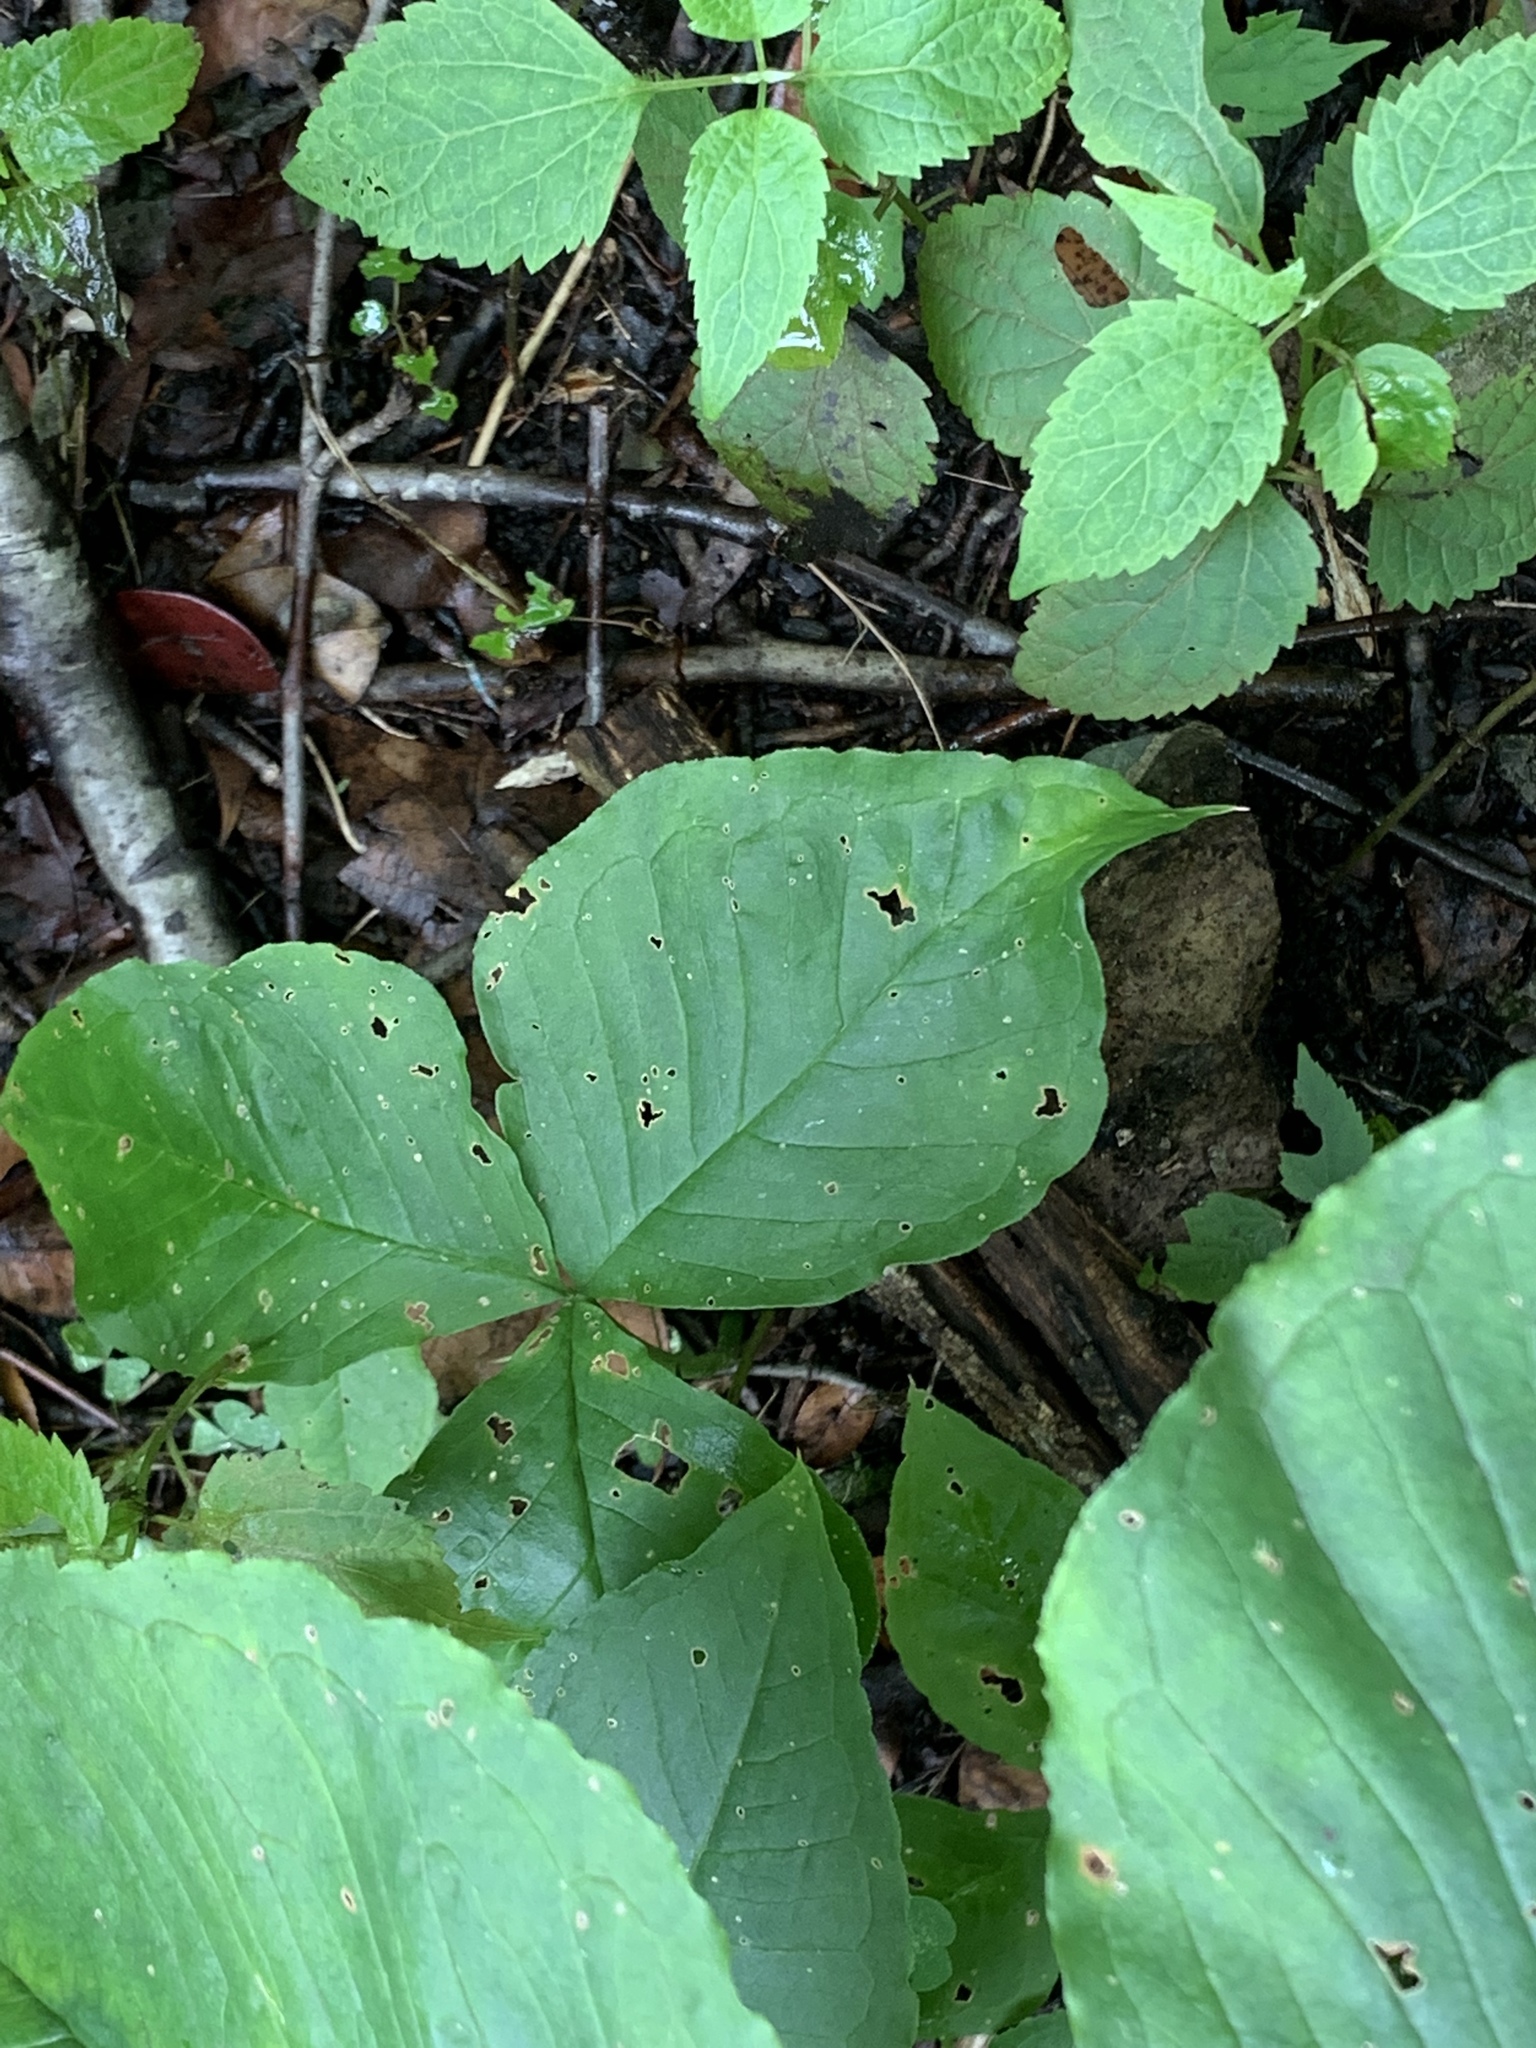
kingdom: Plantae
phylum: Tracheophyta
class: Liliopsida
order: Alismatales
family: Araceae
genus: Arisaema
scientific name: Arisaema triphyllum
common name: Jack-in-the-pulpit
